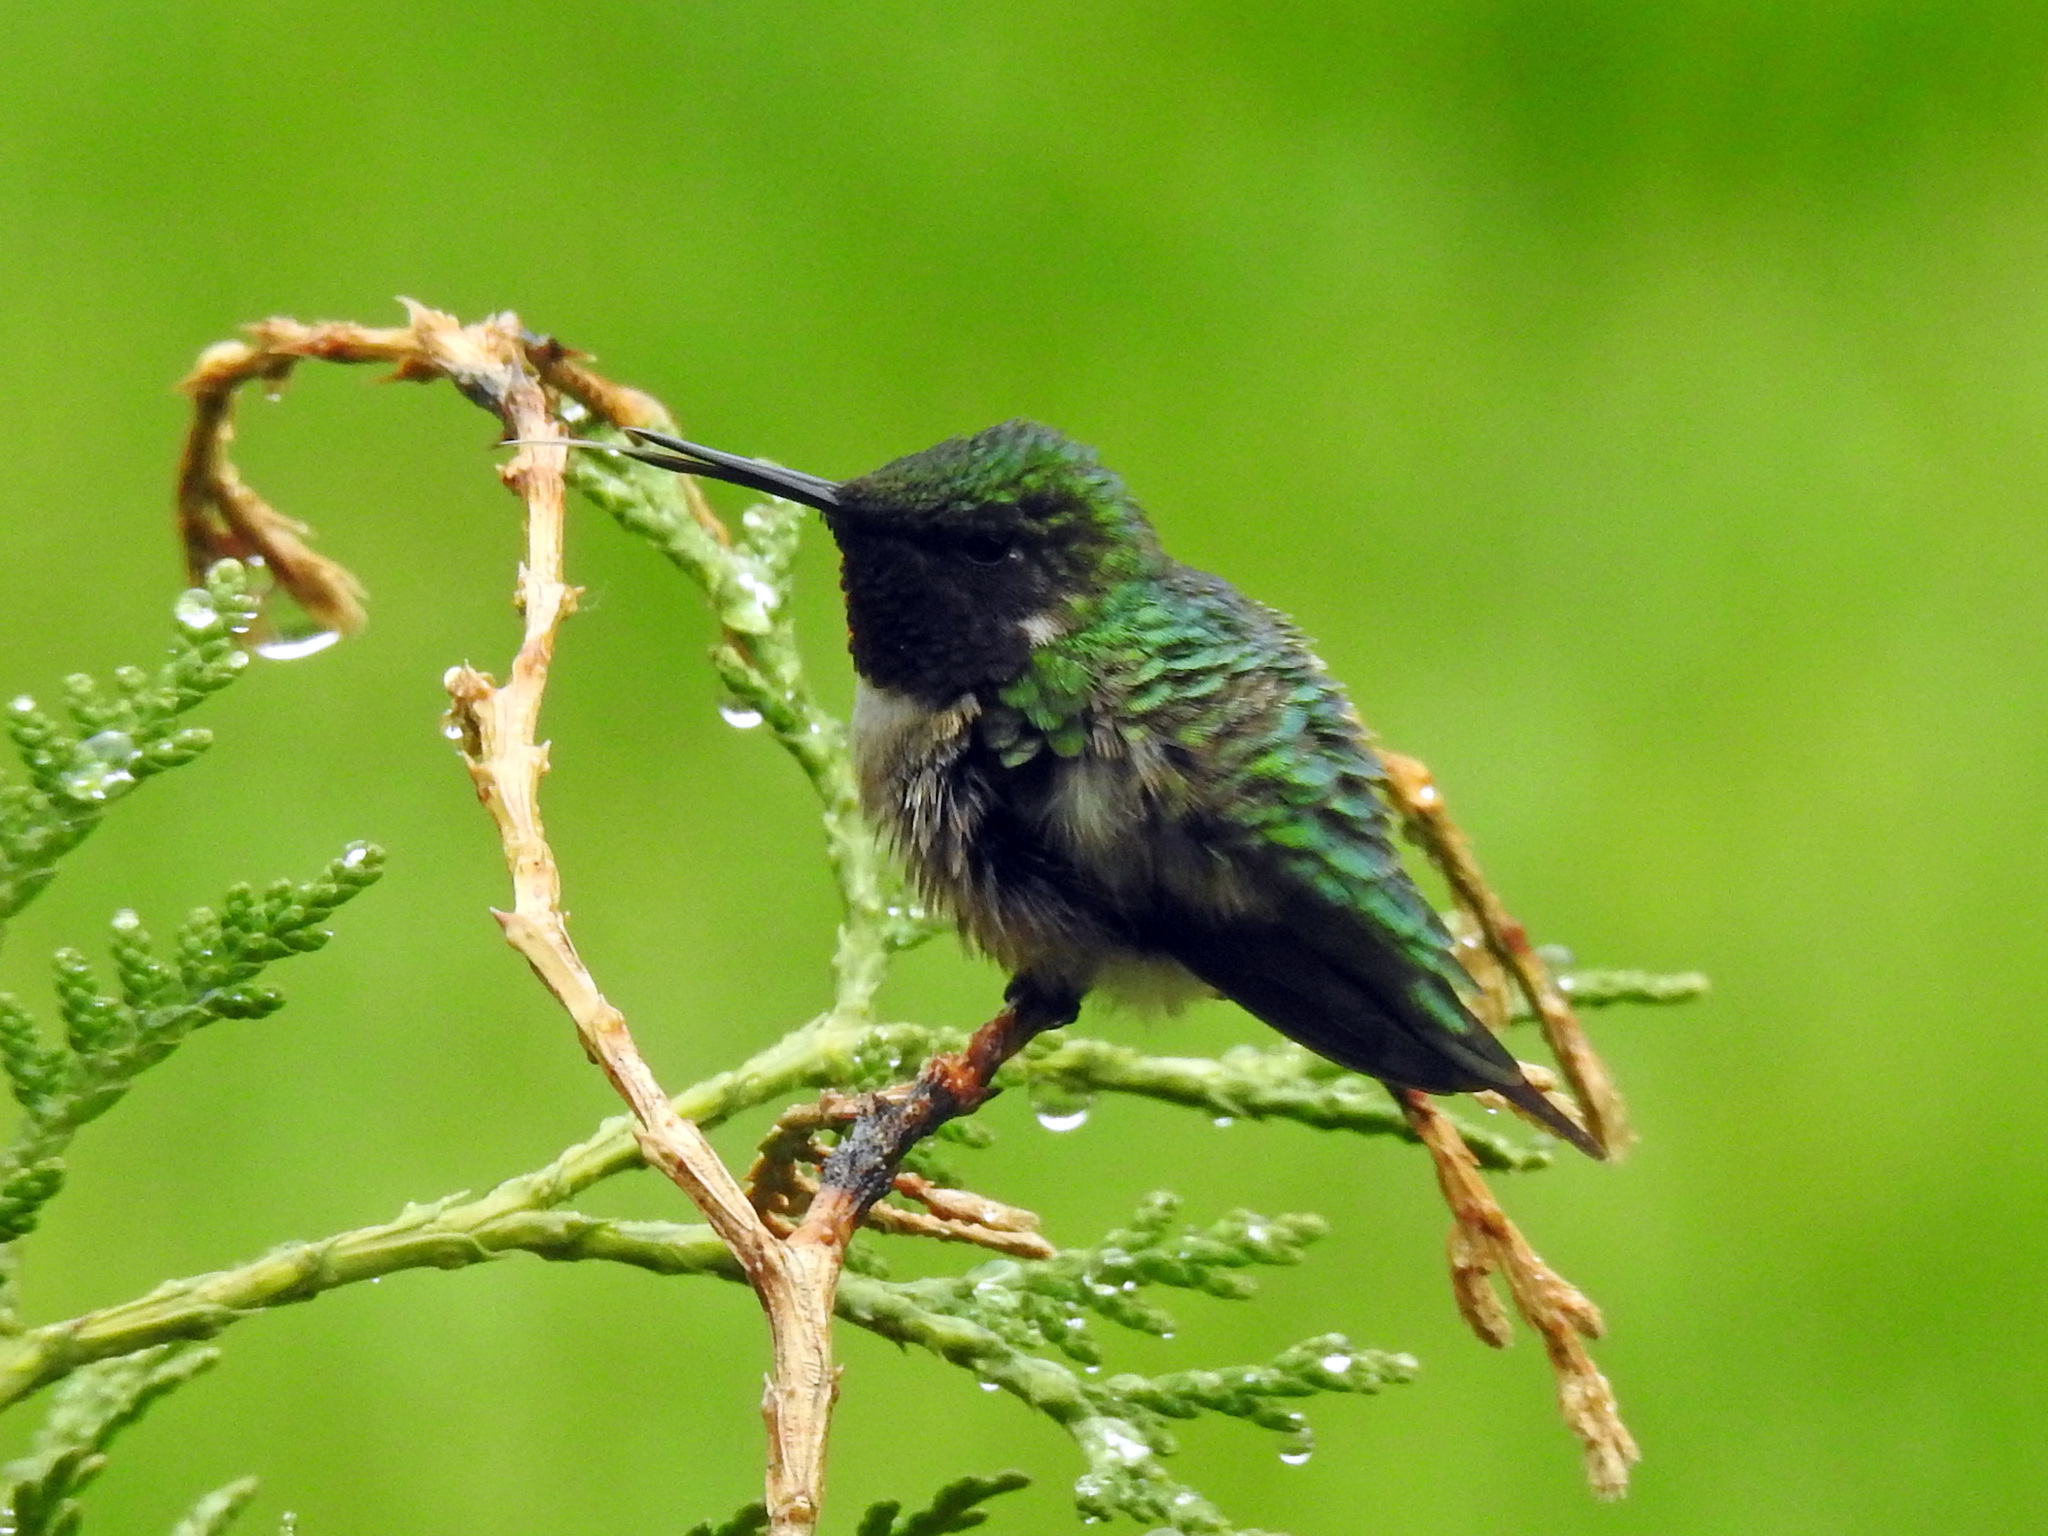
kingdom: Animalia
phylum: Chordata
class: Aves
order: Apodiformes
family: Trochilidae
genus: Archilochus
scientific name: Archilochus colubris
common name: Ruby-throated hummingbird
